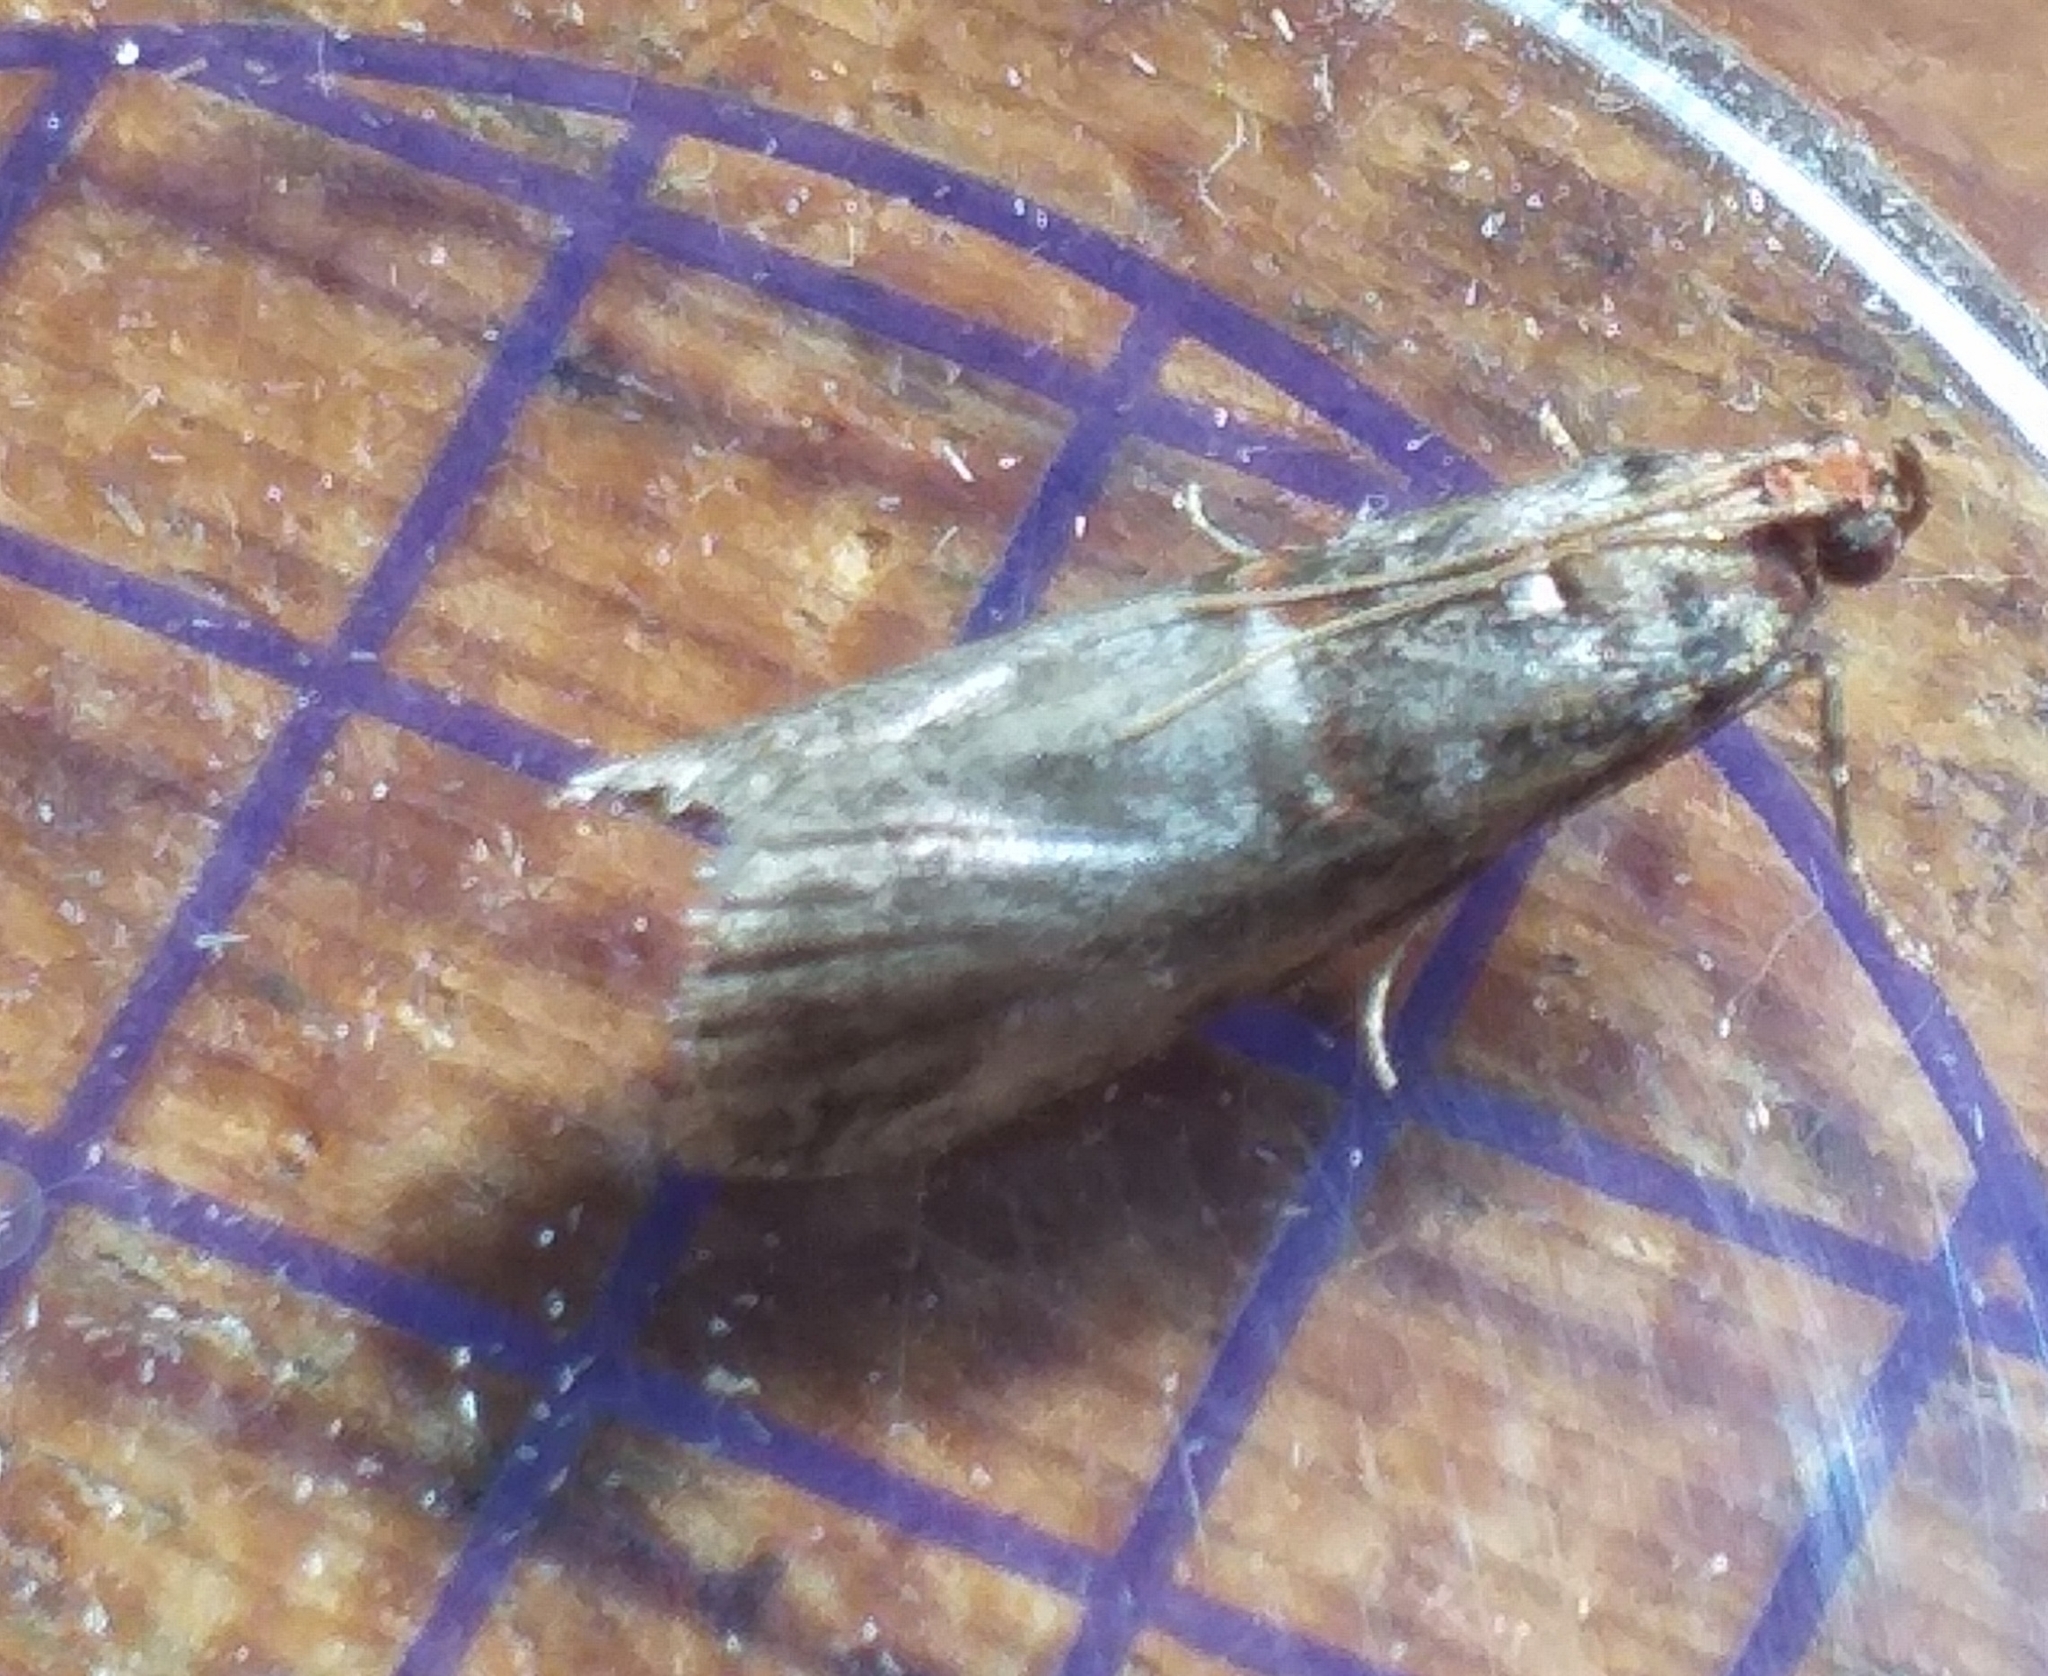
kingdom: Animalia
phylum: Arthropoda
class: Insecta
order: Lepidoptera
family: Pyralidae
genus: Acrobasis
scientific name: Acrobasis advenella
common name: Grey knot-horn
